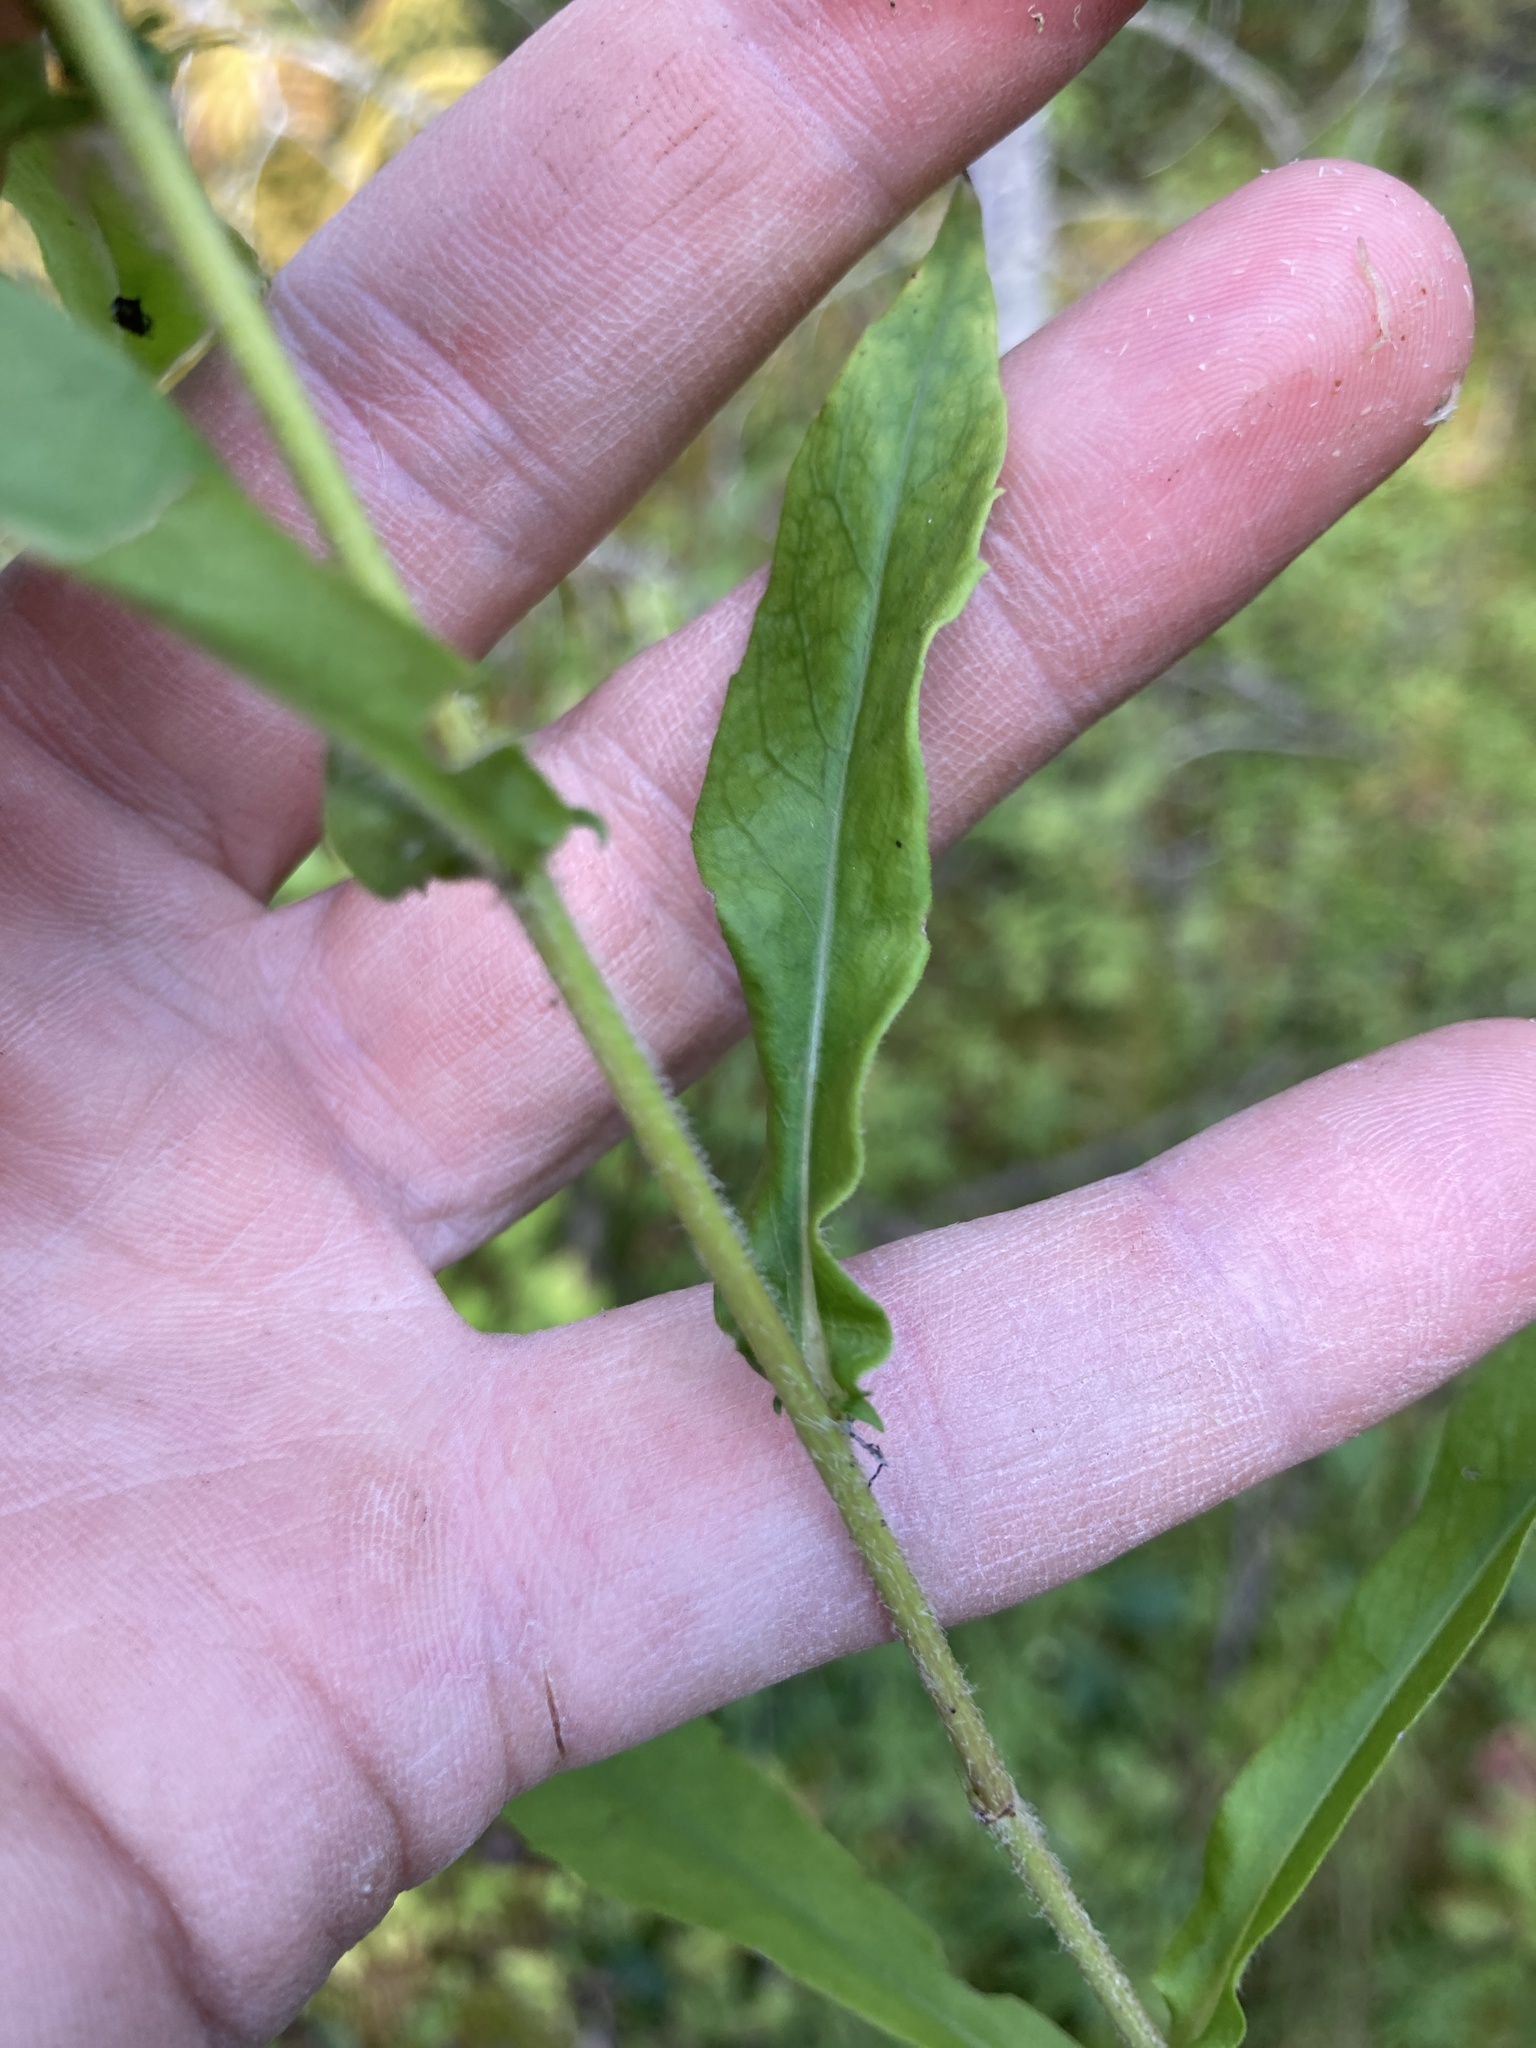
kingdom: Plantae
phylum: Tracheophyta
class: Magnoliopsida
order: Asterales
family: Asteraceae
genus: Symphyotrichum
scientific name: Symphyotrichum lateriflorum
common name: Calico aster
